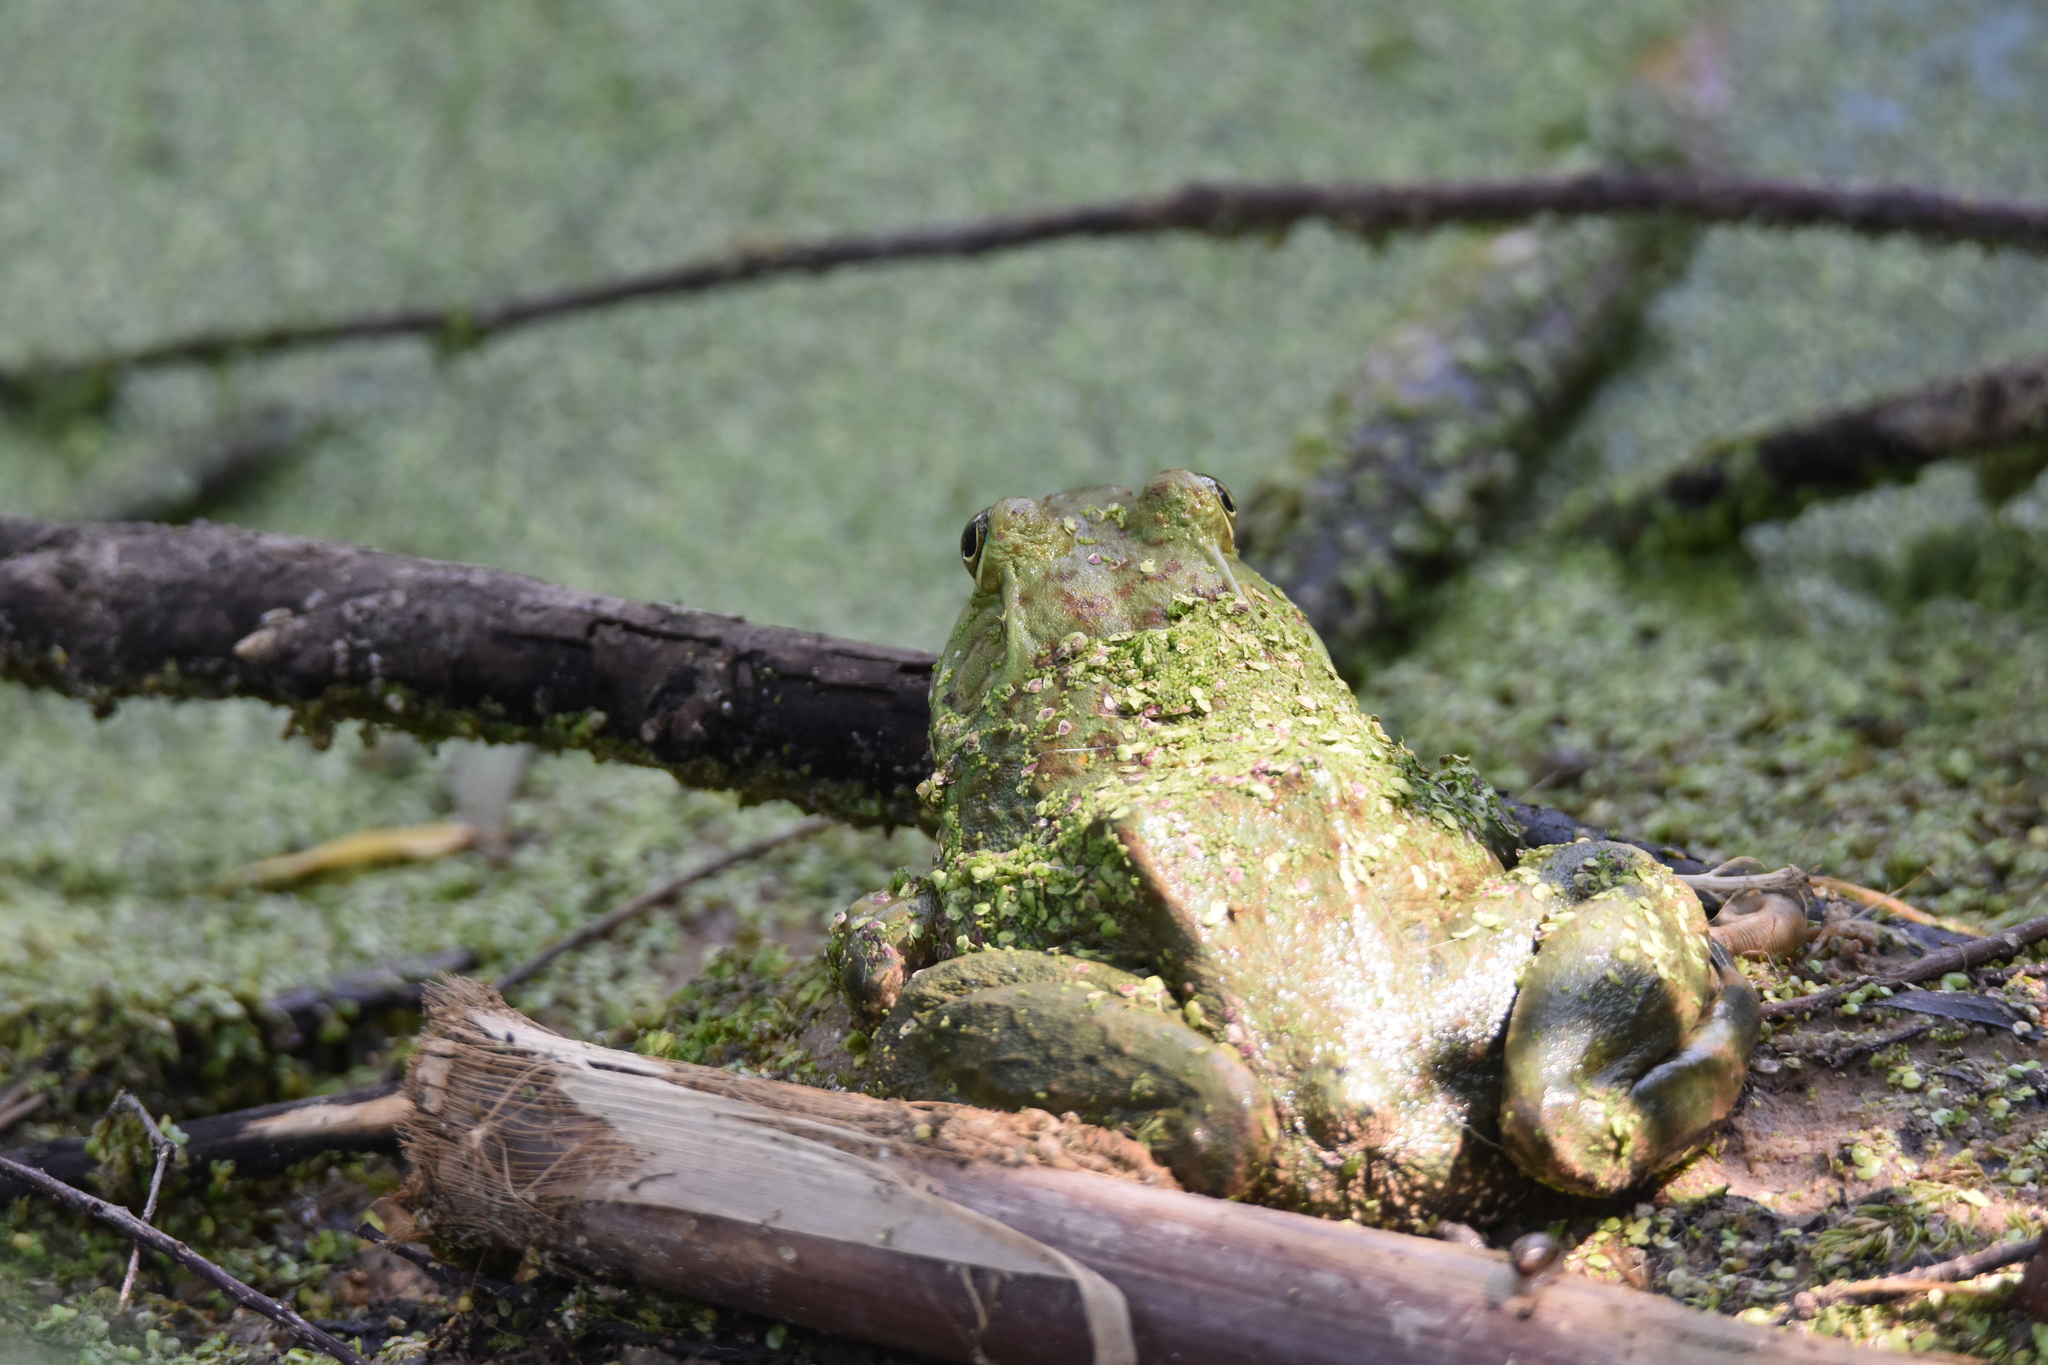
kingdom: Animalia
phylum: Chordata
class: Amphibia
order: Anura
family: Ranidae
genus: Lithobates
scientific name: Lithobates catesbeianus
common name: American bullfrog
